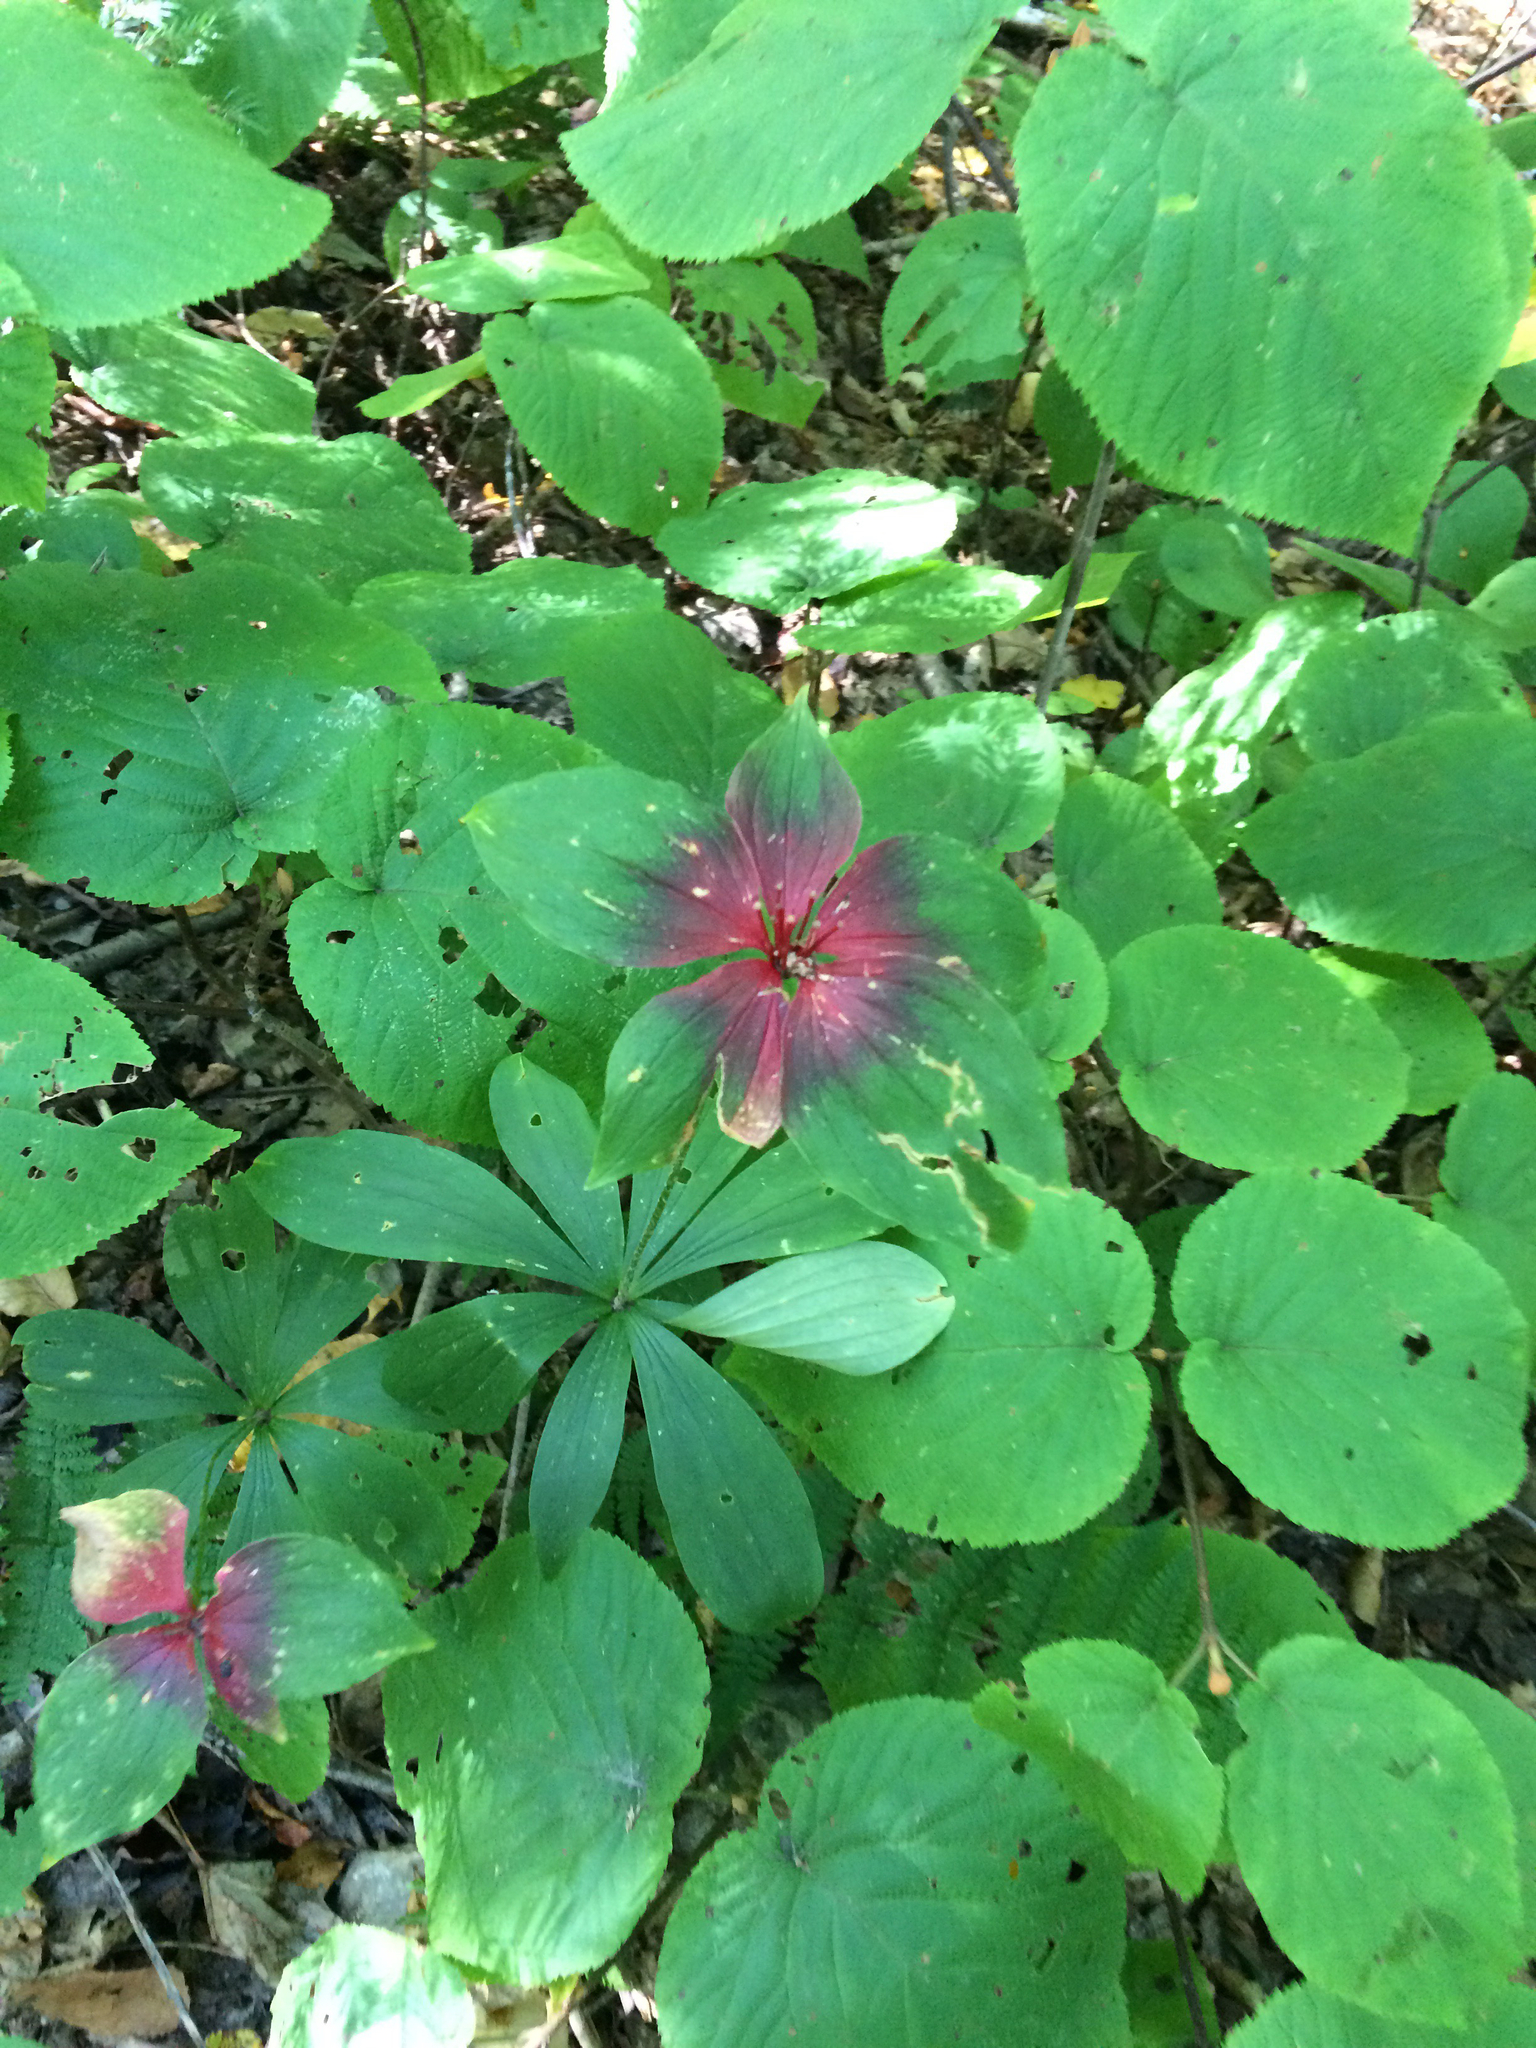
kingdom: Plantae
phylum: Tracheophyta
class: Liliopsida
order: Liliales
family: Liliaceae
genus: Medeola
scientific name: Medeola virginiana
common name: Indian cucumber-root
